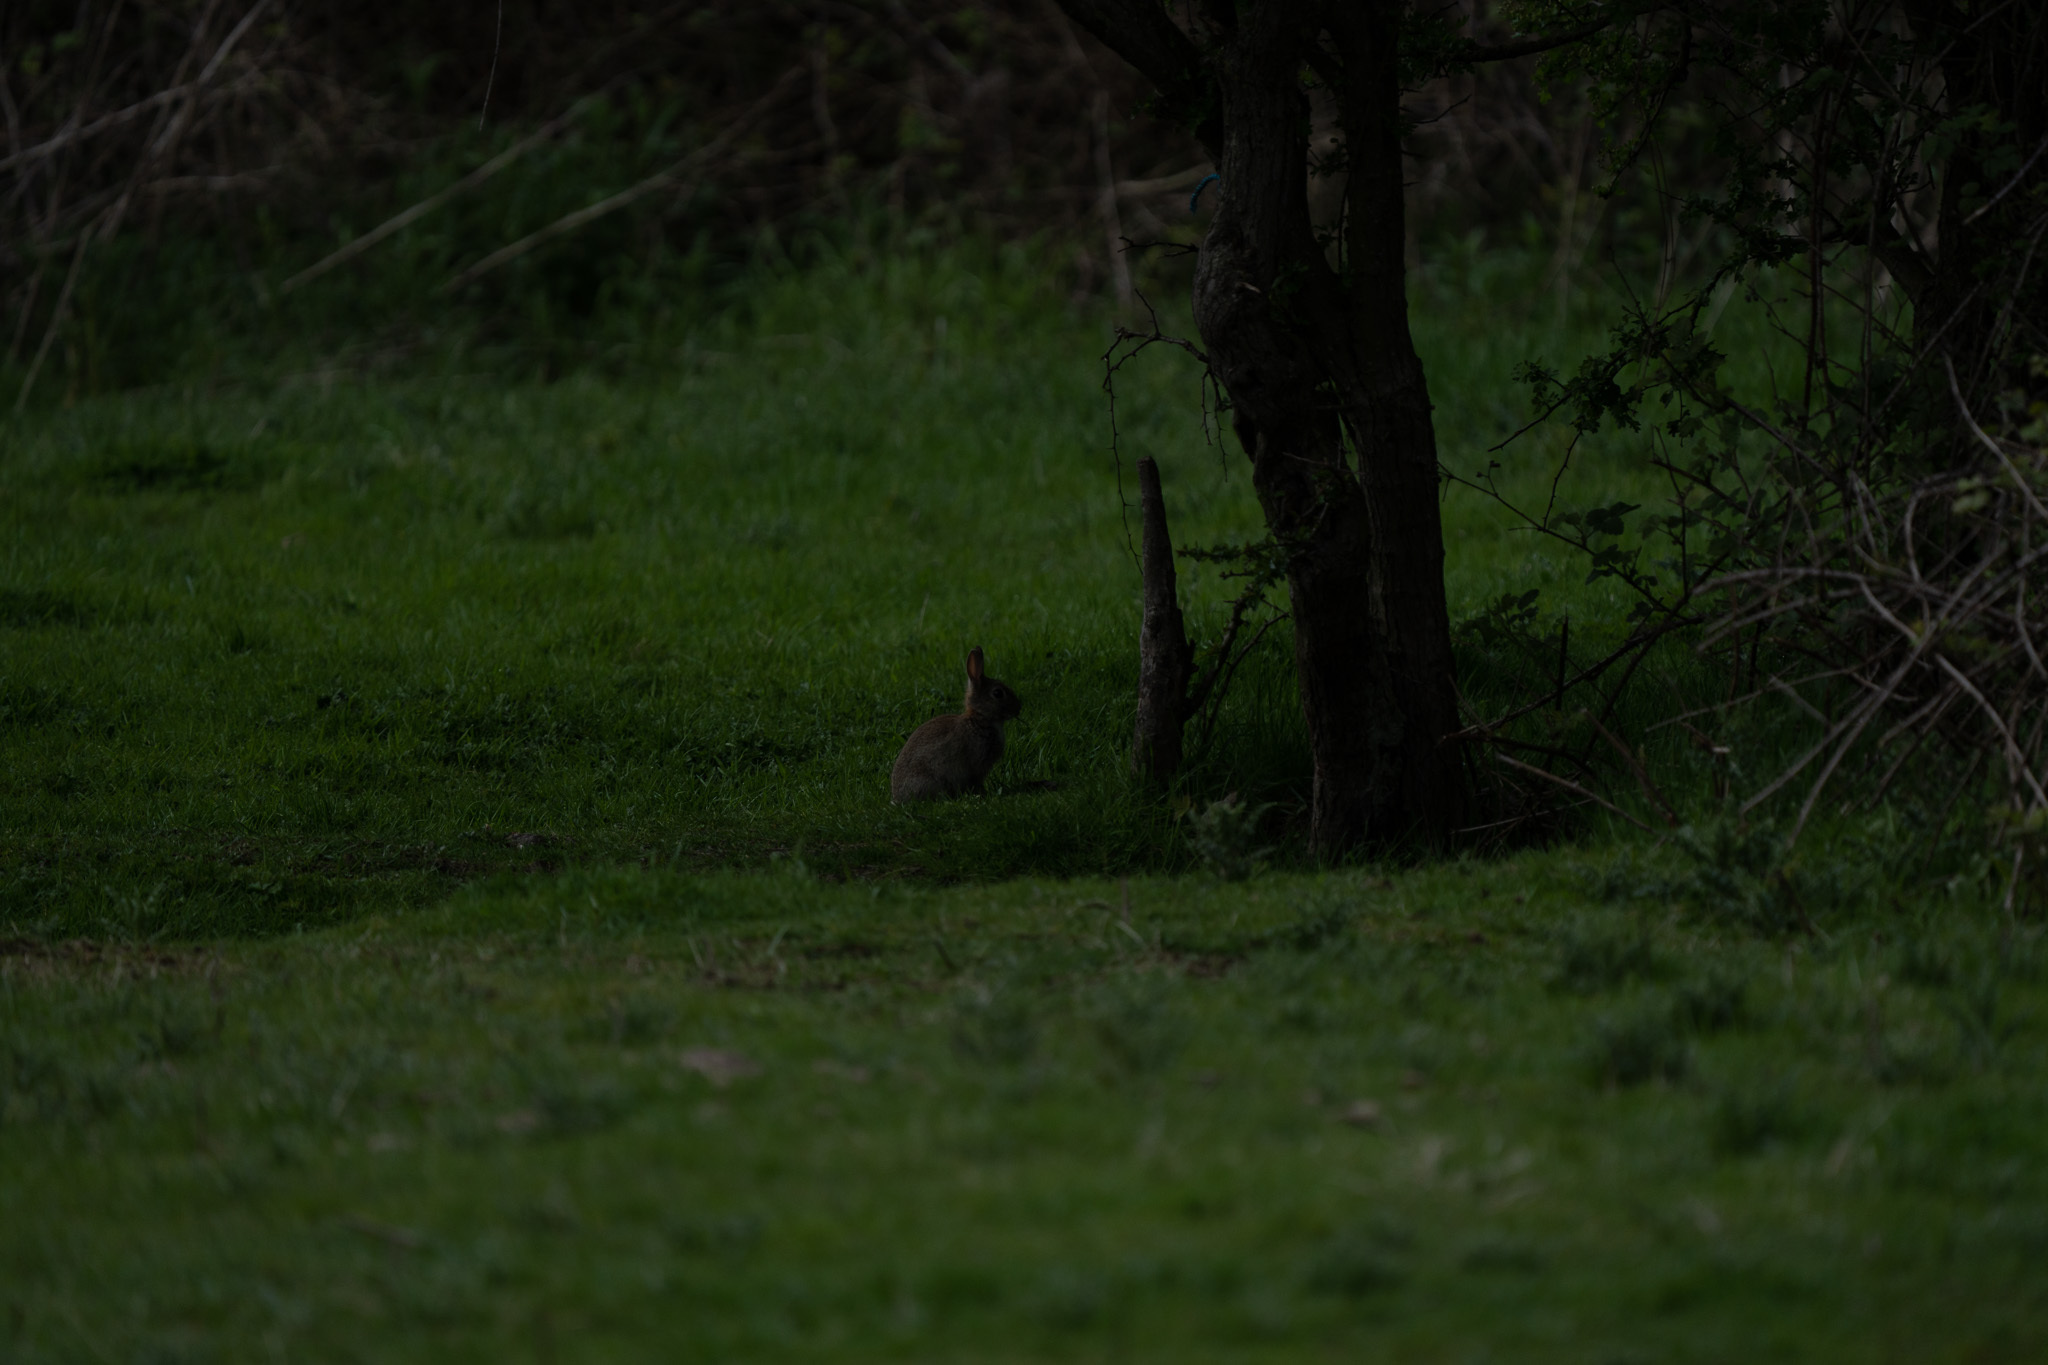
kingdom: Animalia
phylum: Chordata
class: Mammalia
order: Lagomorpha
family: Leporidae
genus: Oryctolagus
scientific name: Oryctolagus cuniculus
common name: European rabbit
